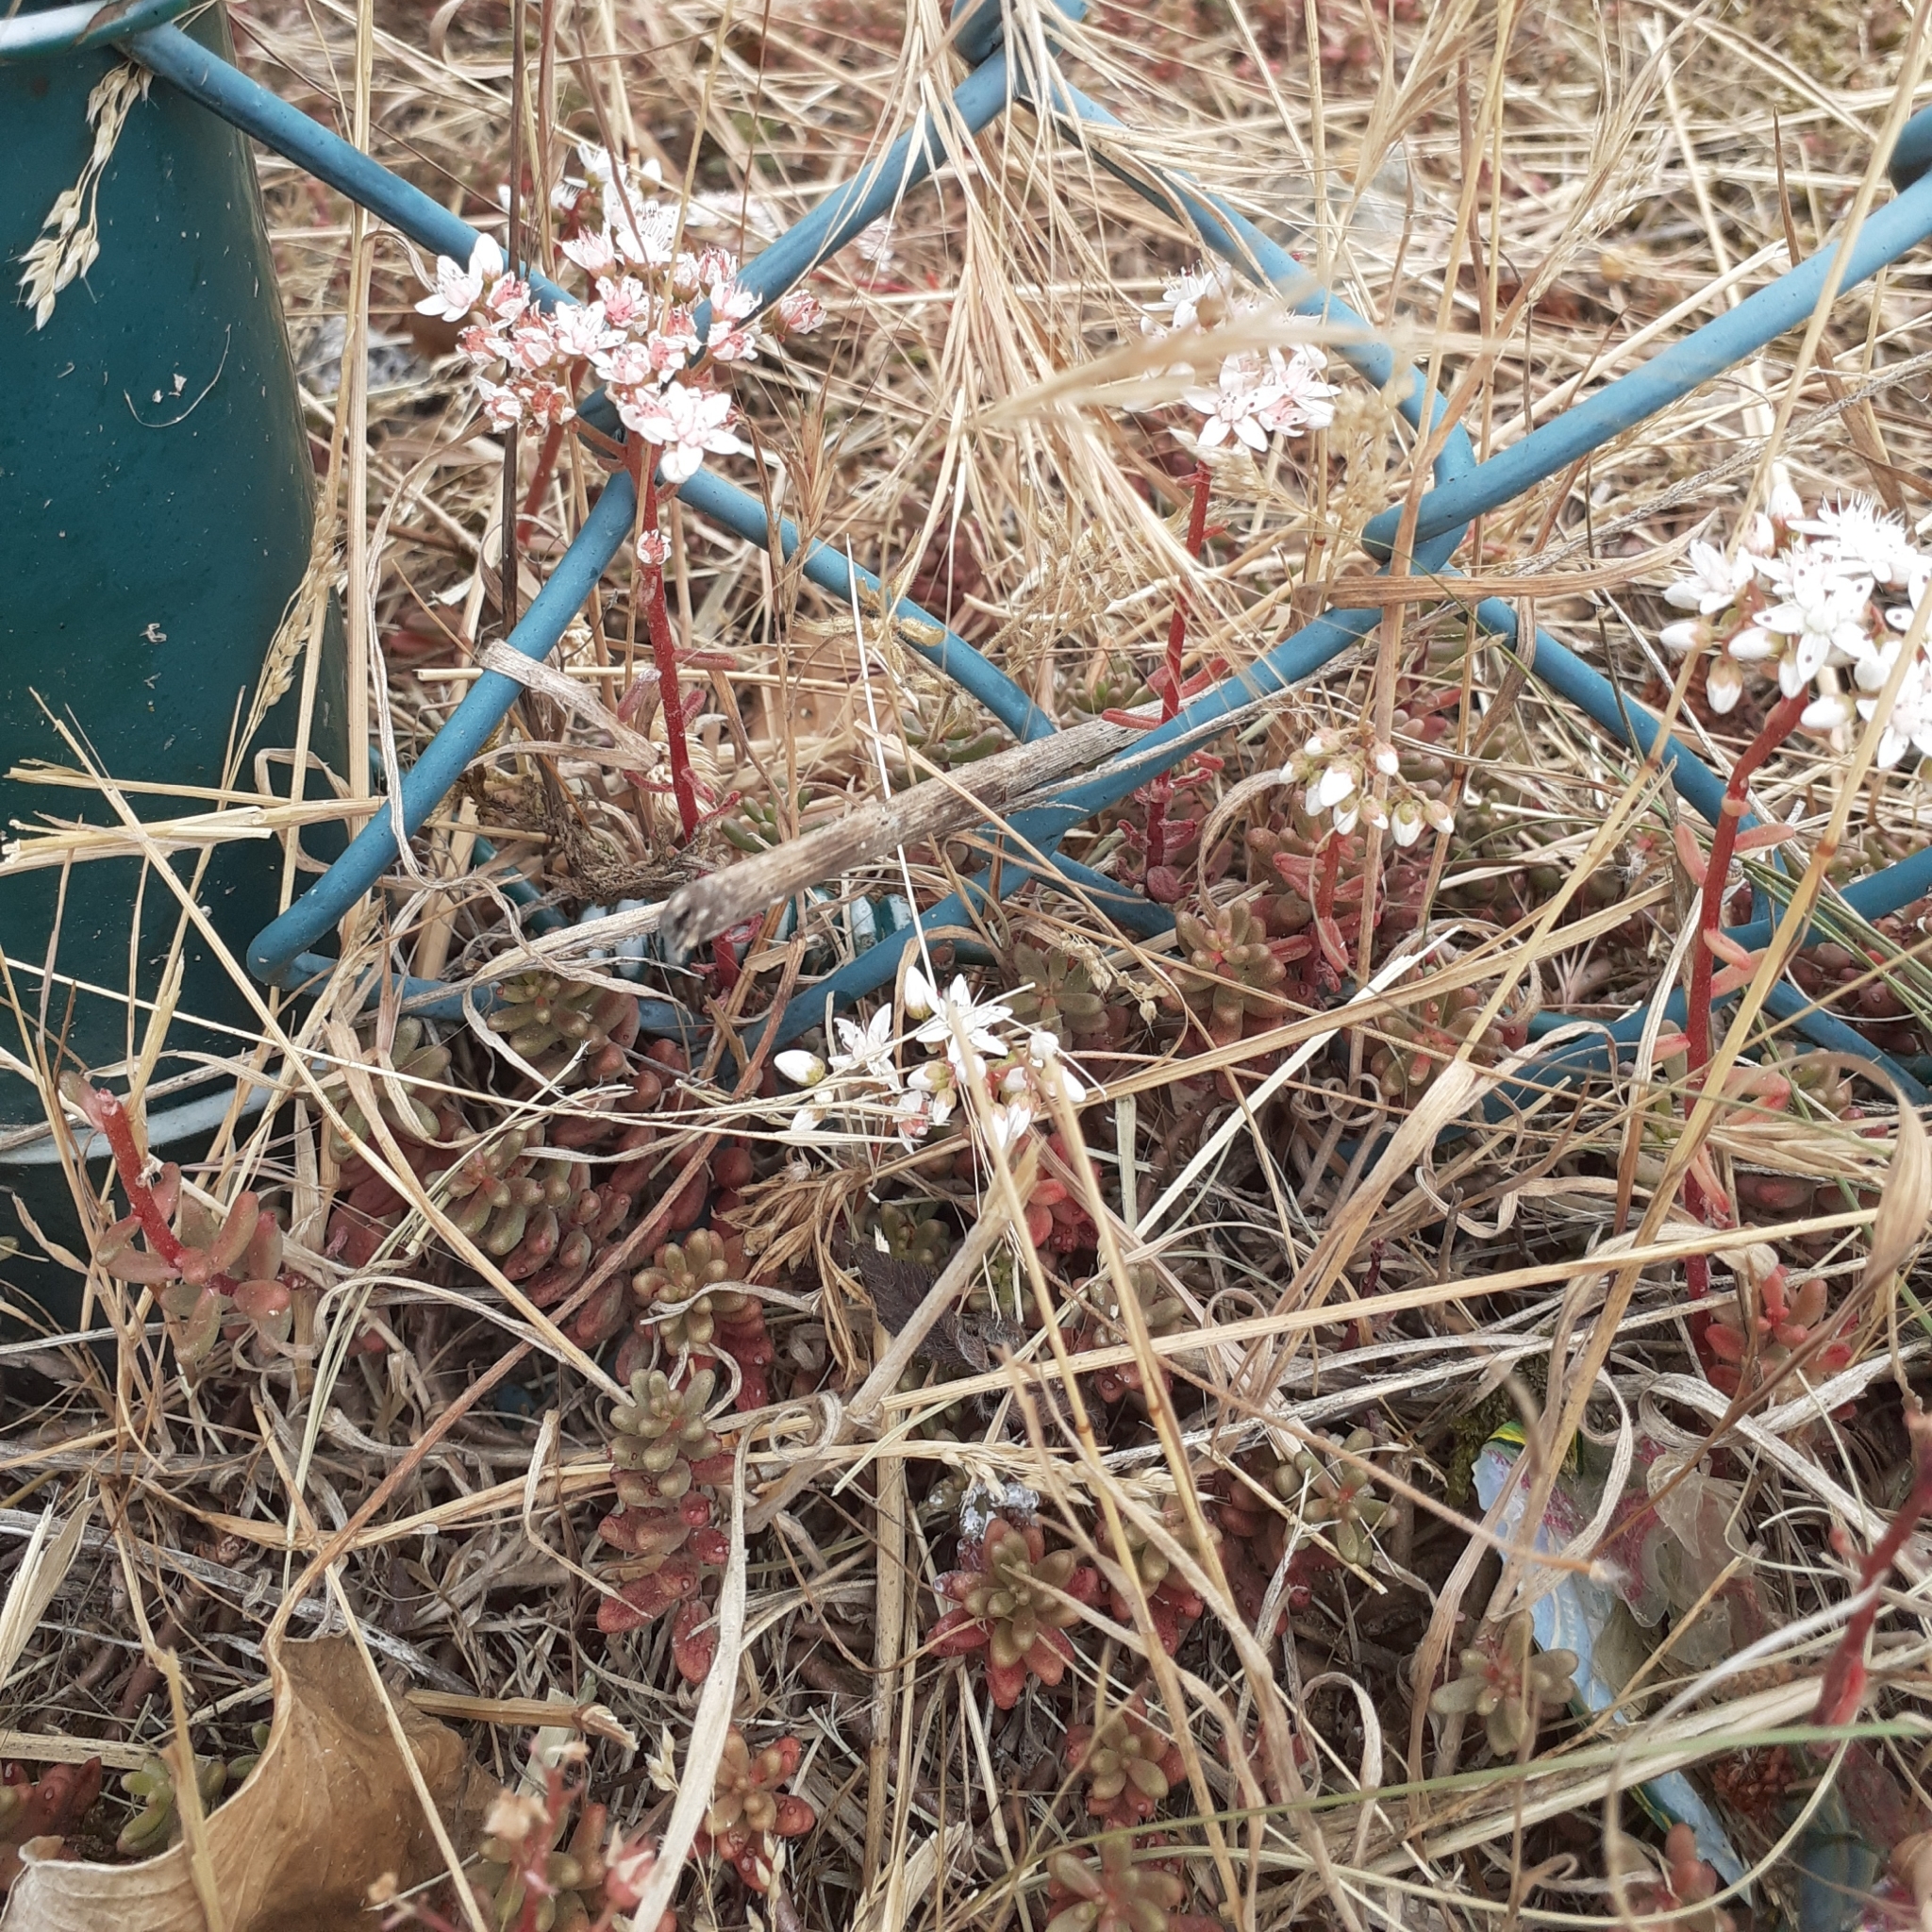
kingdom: Plantae
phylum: Tracheophyta
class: Magnoliopsida
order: Saxifragales
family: Crassulaceae
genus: Sedum
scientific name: Sedum album
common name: White stonecrop
